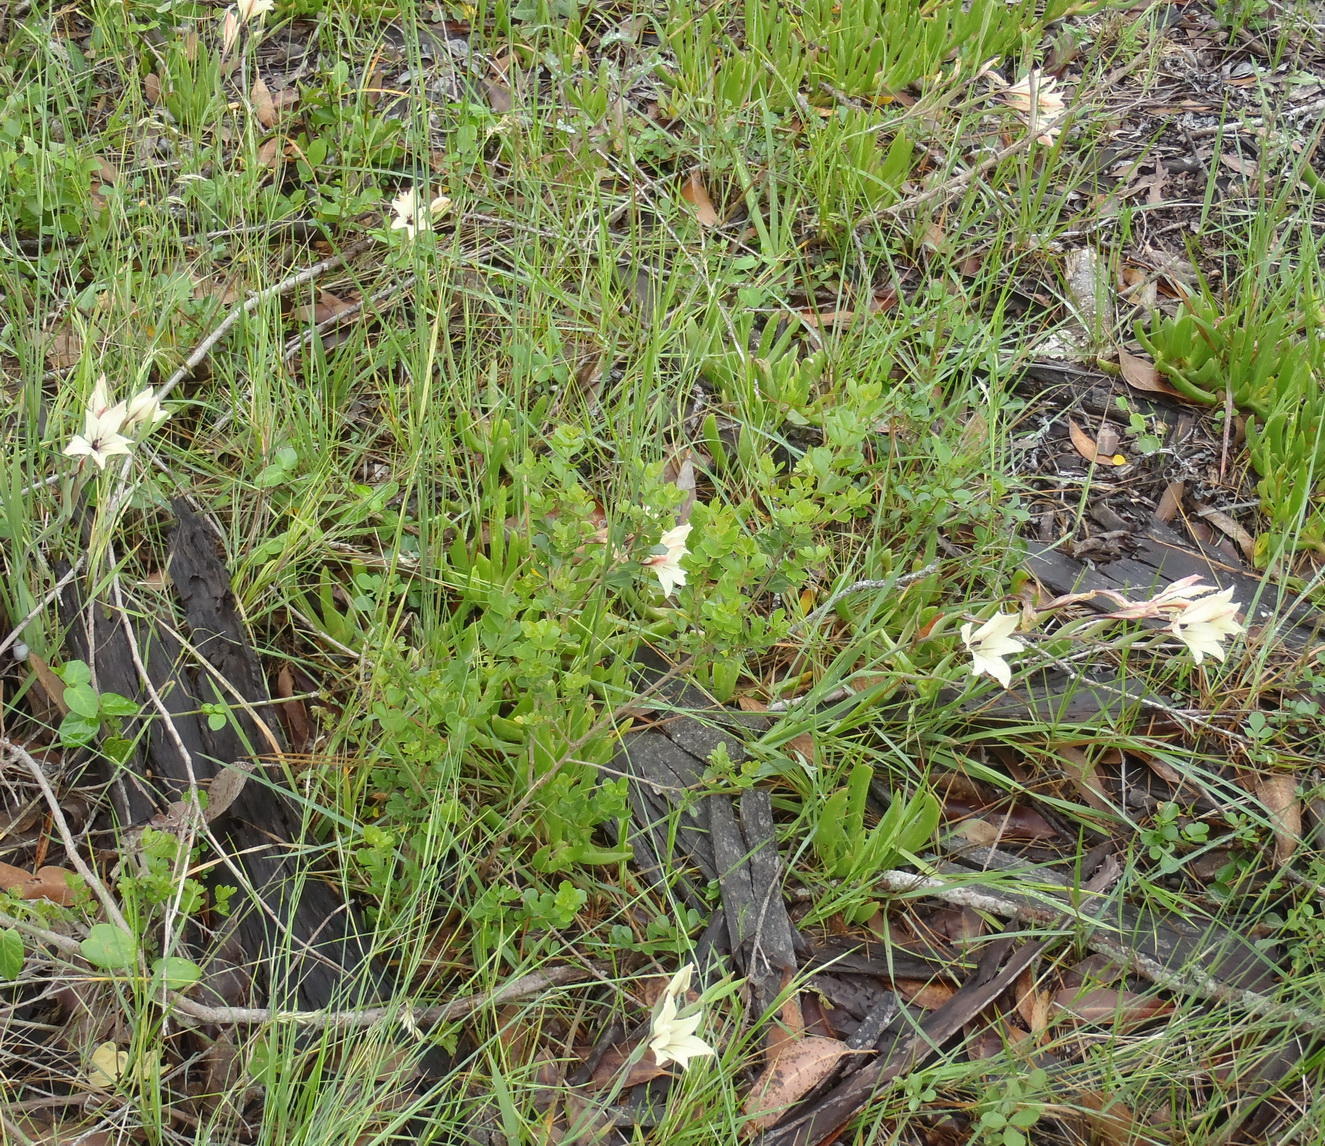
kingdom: Plantae
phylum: Tracheophyta
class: Liliopsida
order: Asparagales
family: Iridaceae
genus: Gladiolus
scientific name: Gladiolus floribundus
